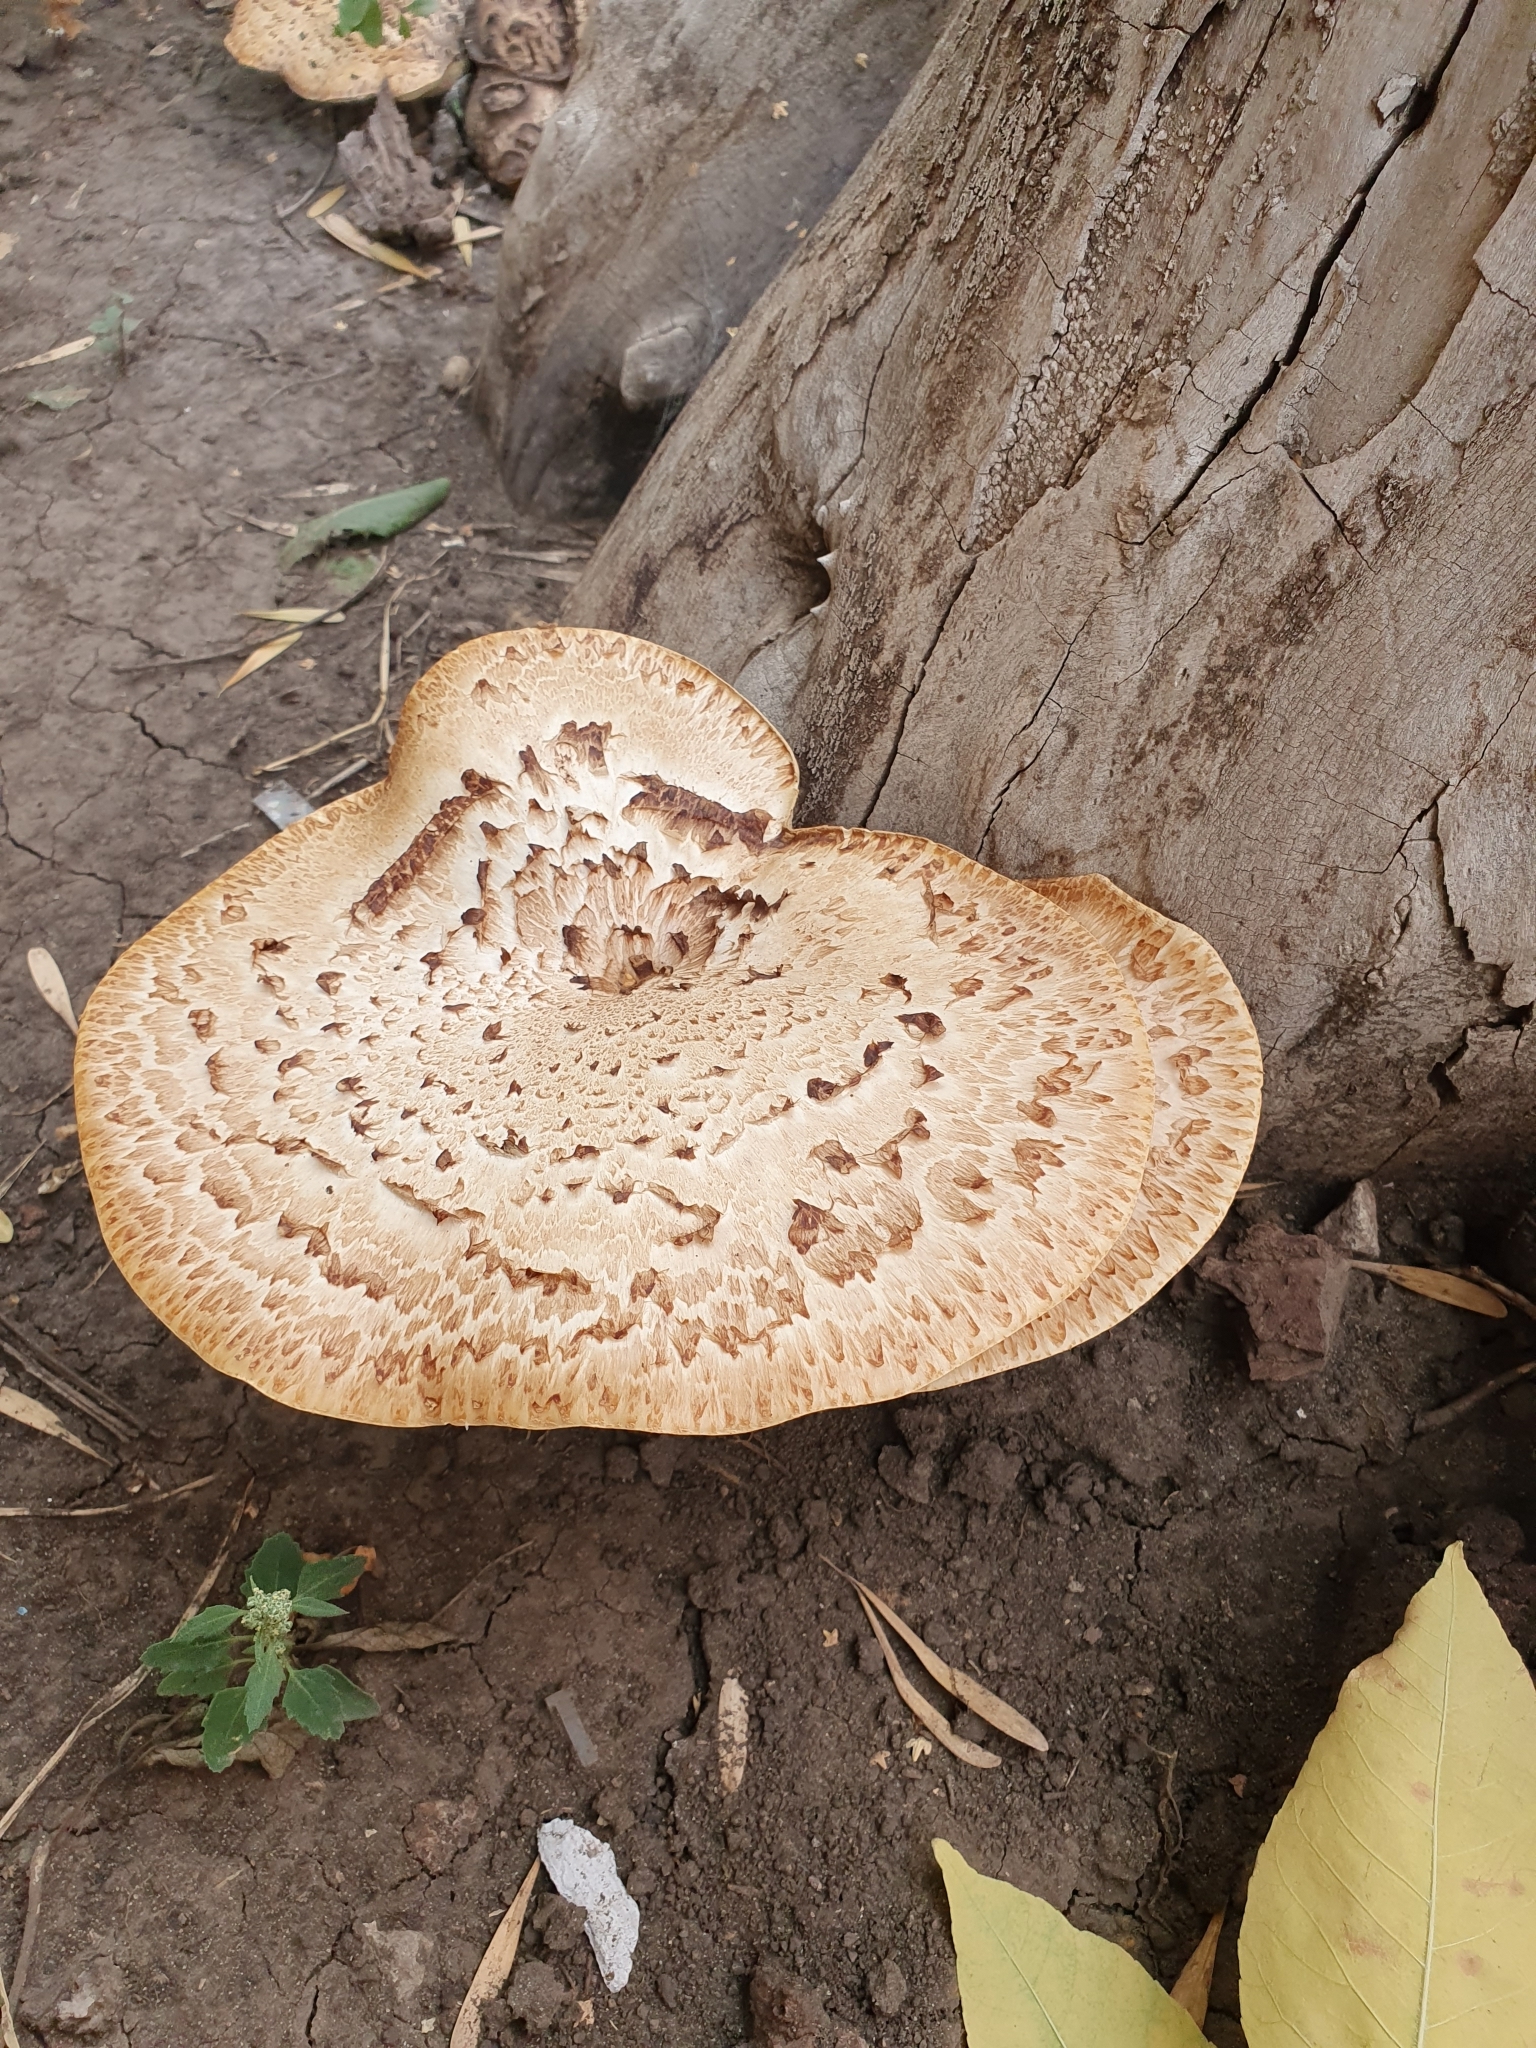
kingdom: Fungi
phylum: Basidiomycota
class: Agaricomycetes
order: Polyporales
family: Polyporaceae
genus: Cerioporus
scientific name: Cerioporus squamosus
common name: Dryad's saddle
